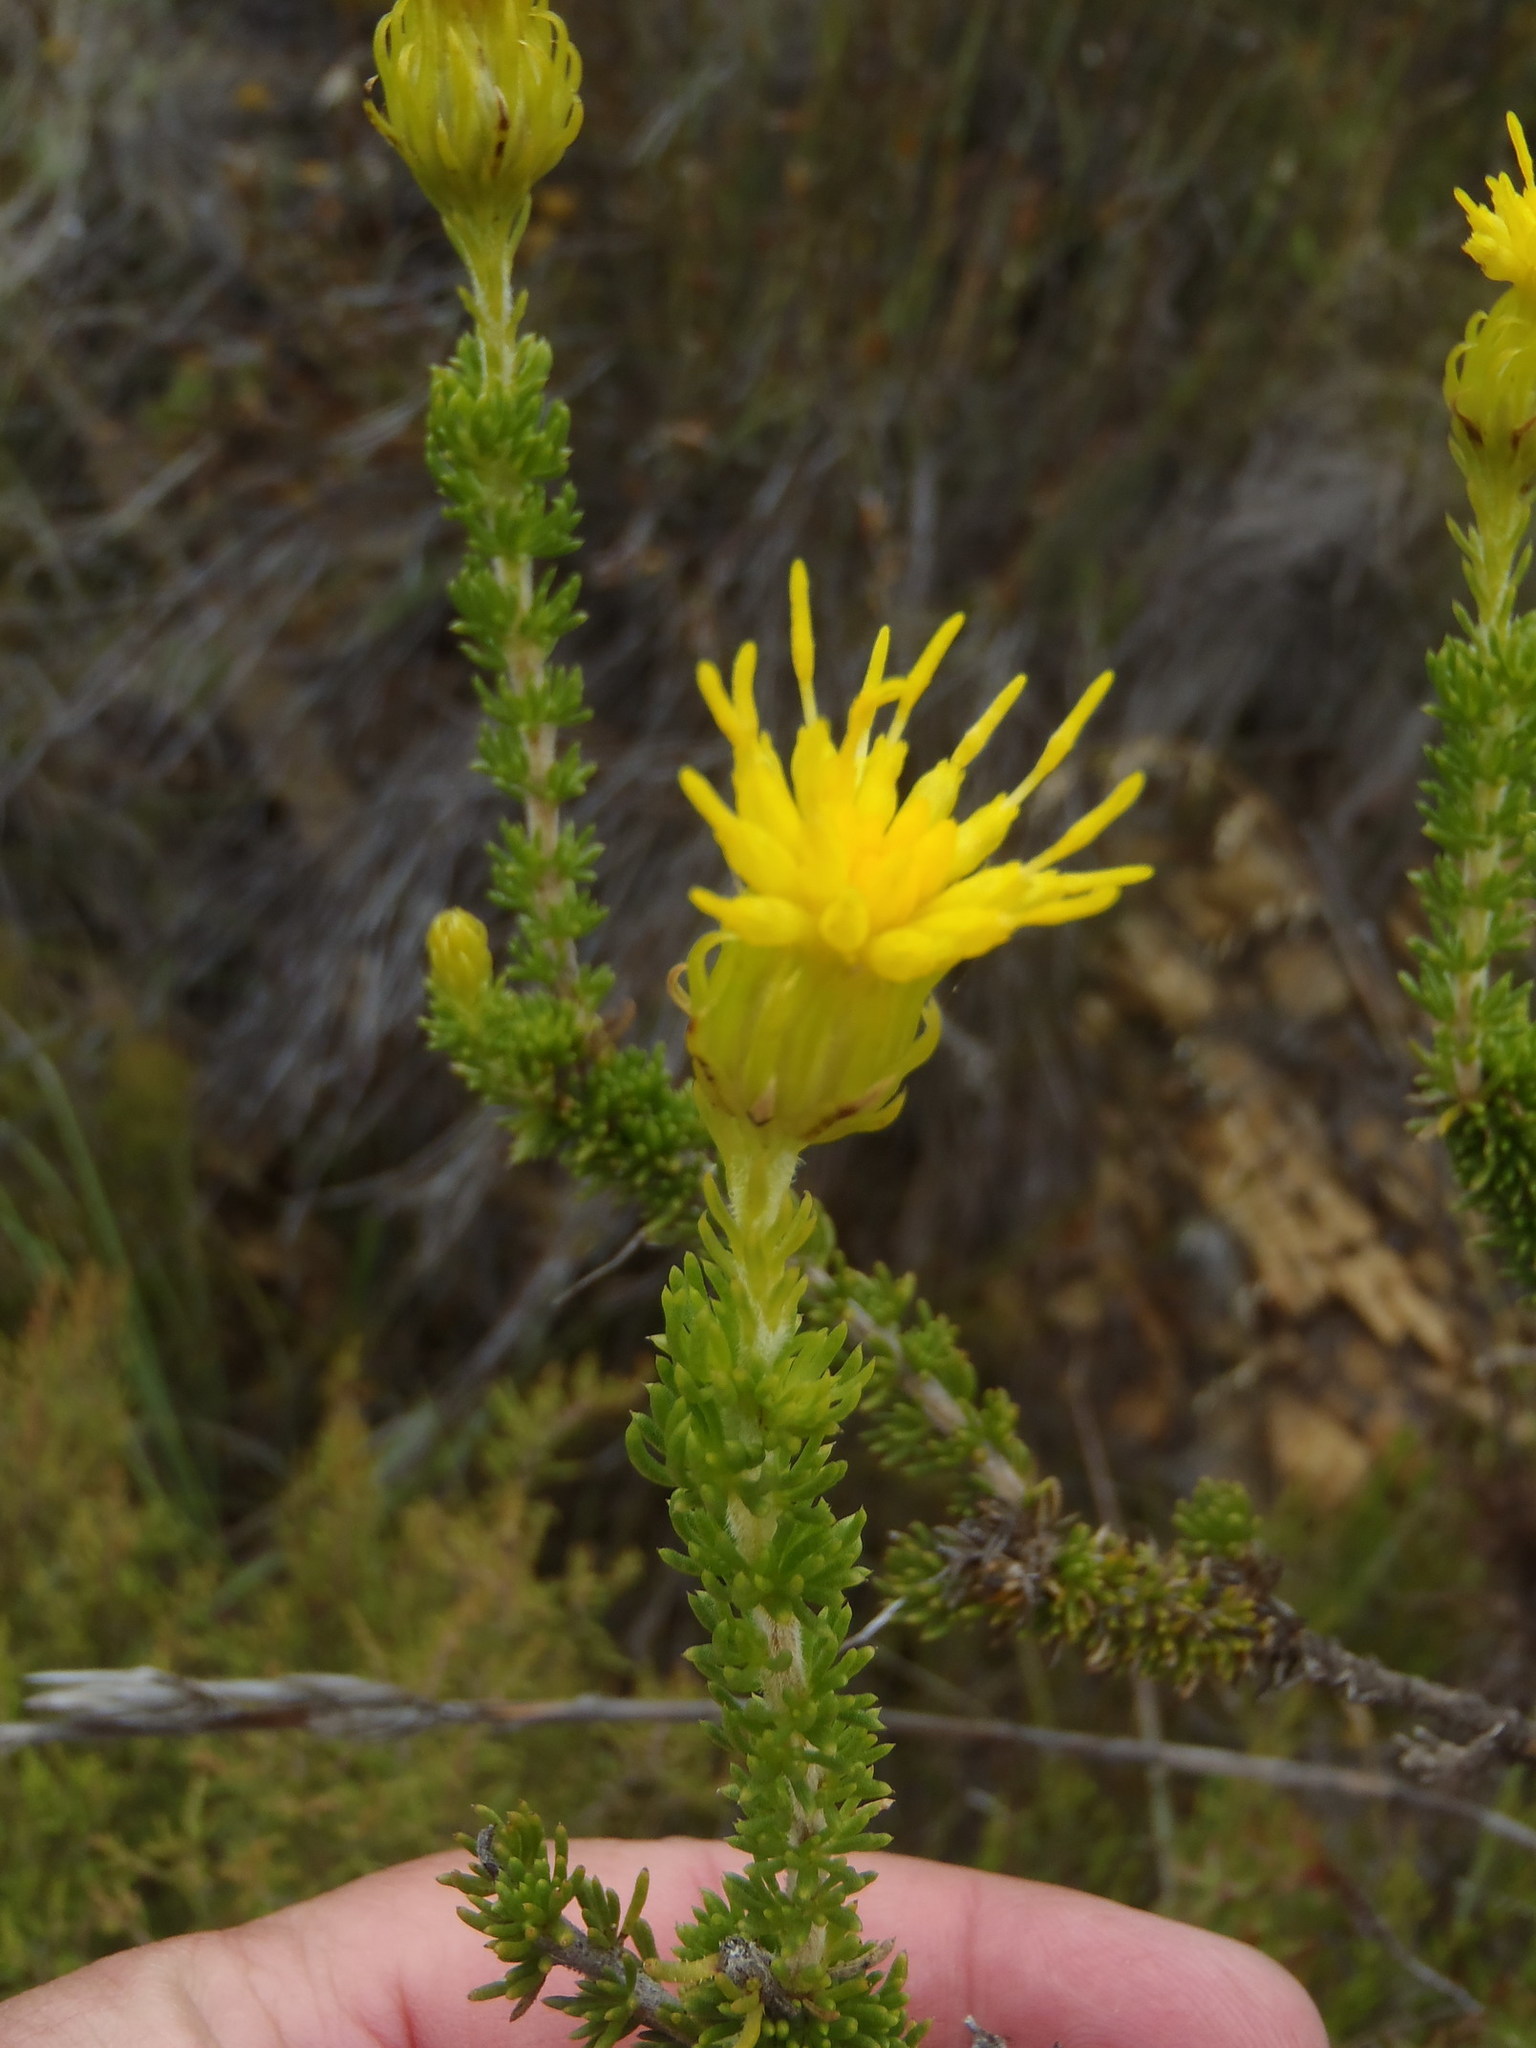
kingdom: Plantae
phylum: Tracheophyta
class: Magnoliopsida
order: Asterales
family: Asteraceae
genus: Pteronia
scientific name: Pteronia camphorata
